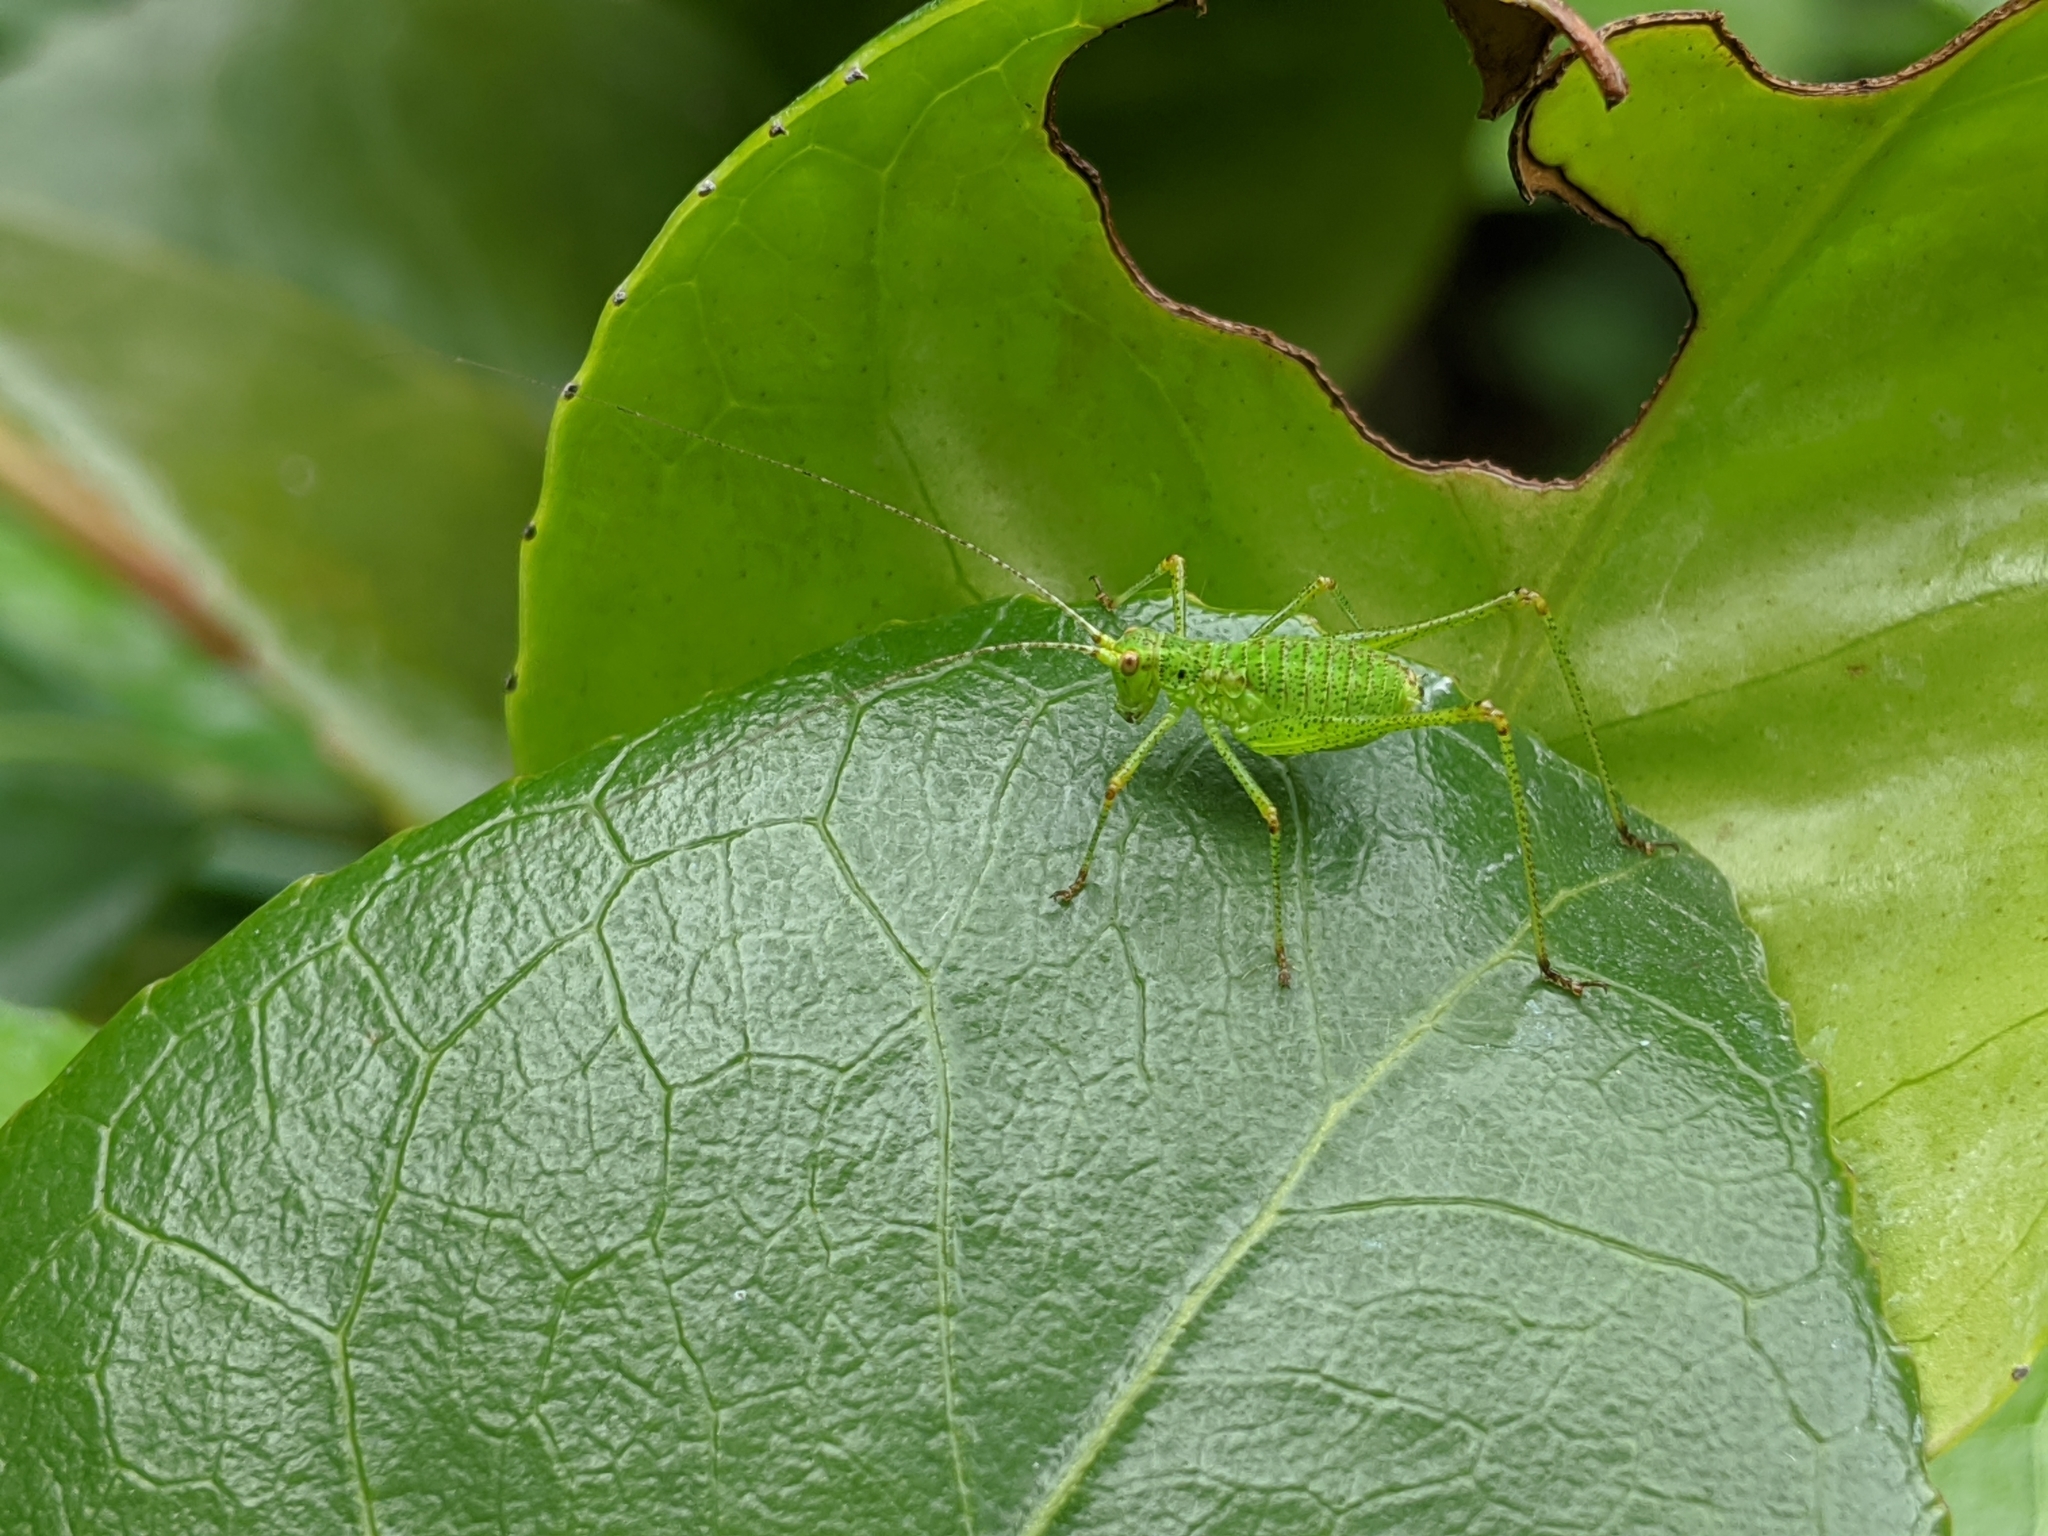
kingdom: Animalia
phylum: Arthropoda
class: Insecta
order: Orthoptera
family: Tettigoniidae
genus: Leptophyes
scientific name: Leptophyes punctatissima
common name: Speckled bush-cricket
